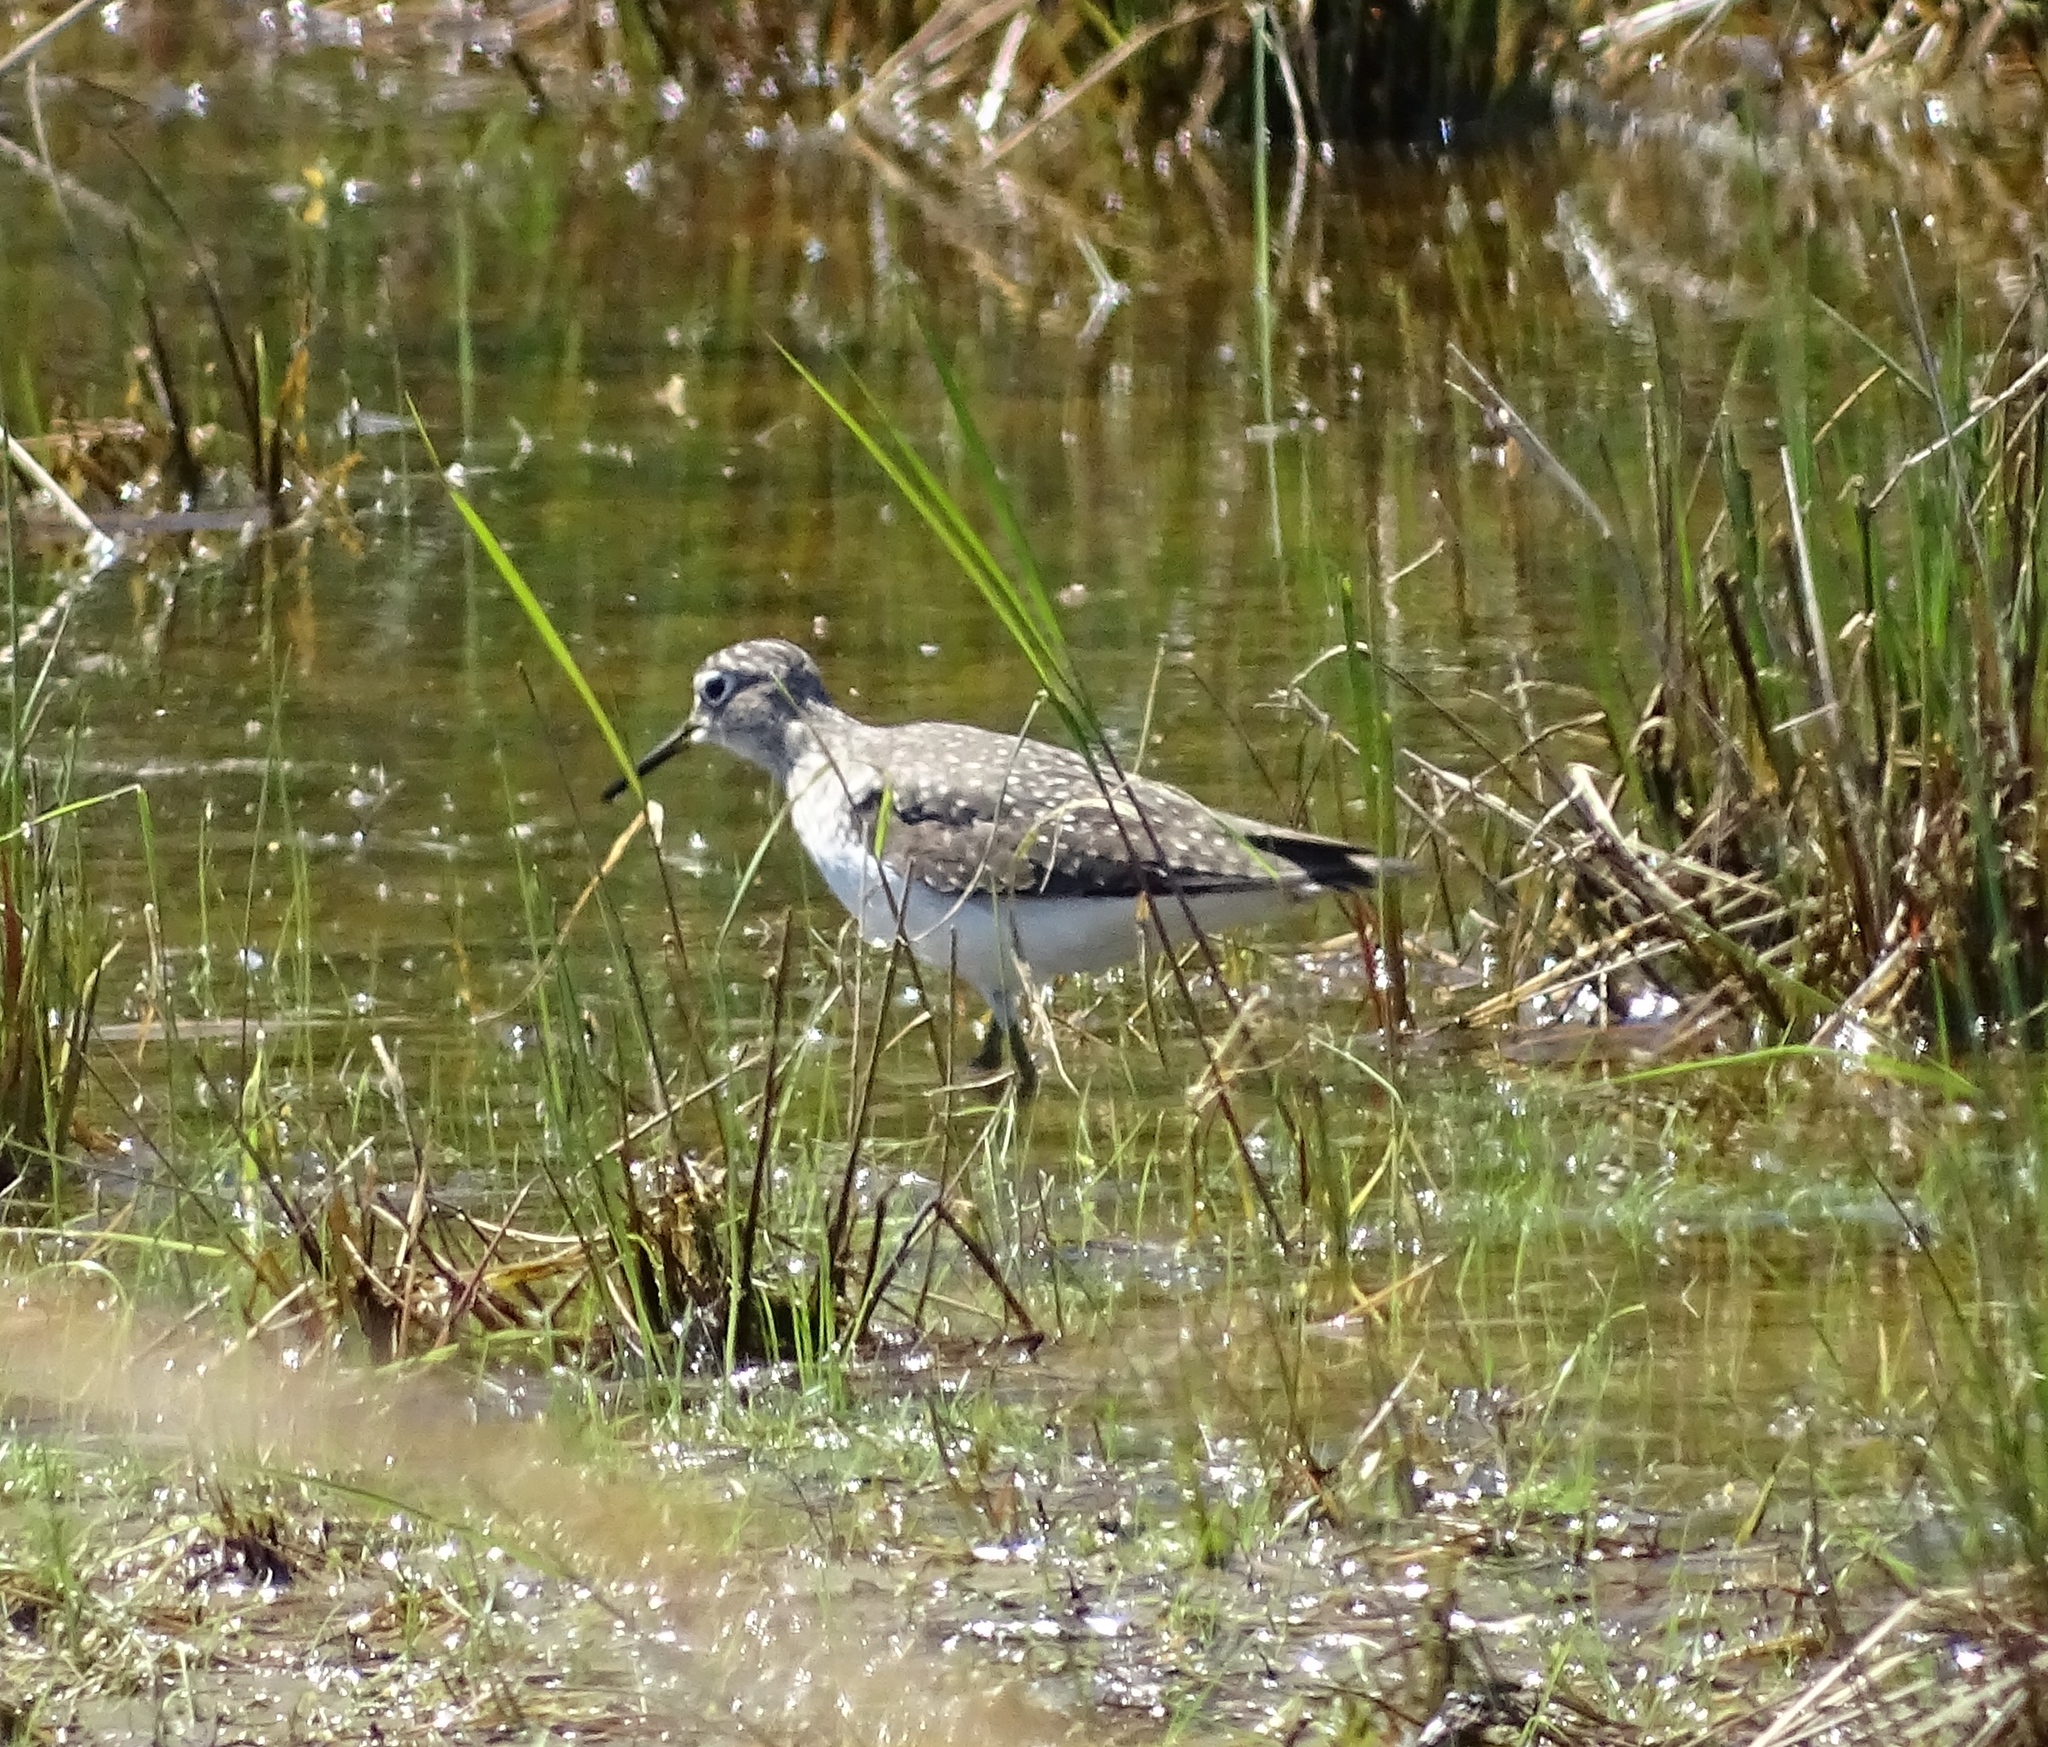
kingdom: Animalia
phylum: Chordata
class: Aves
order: Charadriiformes
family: Scolopacidae
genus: Tringa
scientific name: Tringa solitaria
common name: Solitary sandpiper
